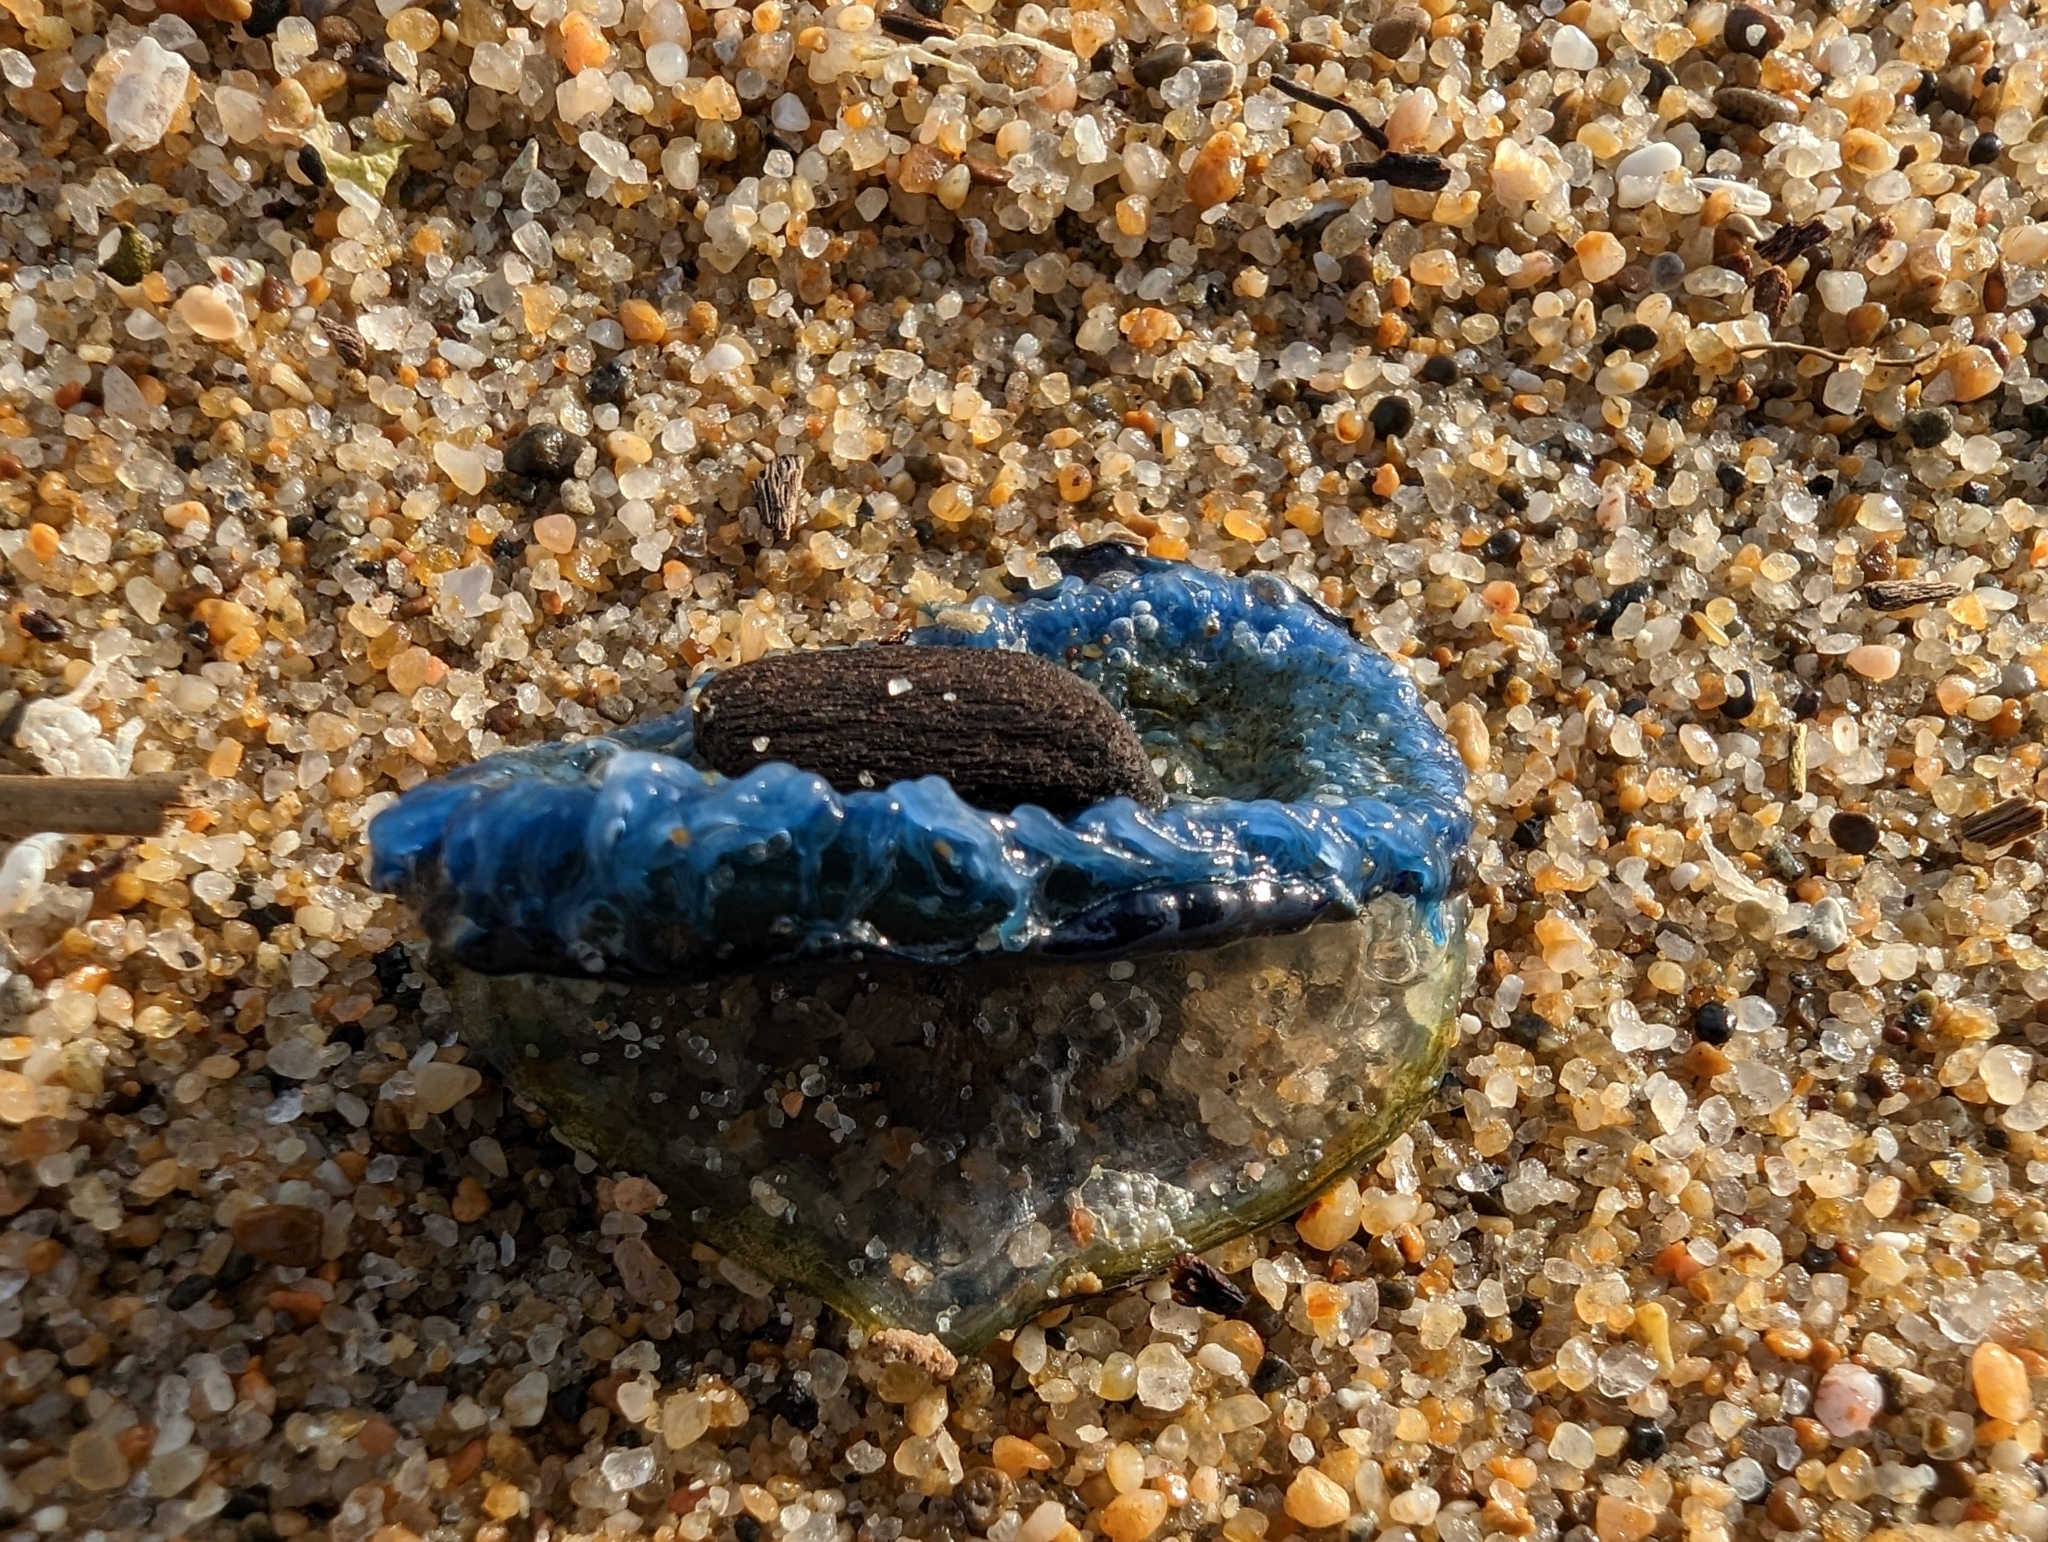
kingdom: Animalia
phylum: Cnidaria
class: Hydrozoa
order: Anthoathecata
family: Porpitidae
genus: Velella
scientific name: Velella velella
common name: By-the-wind-sailor
